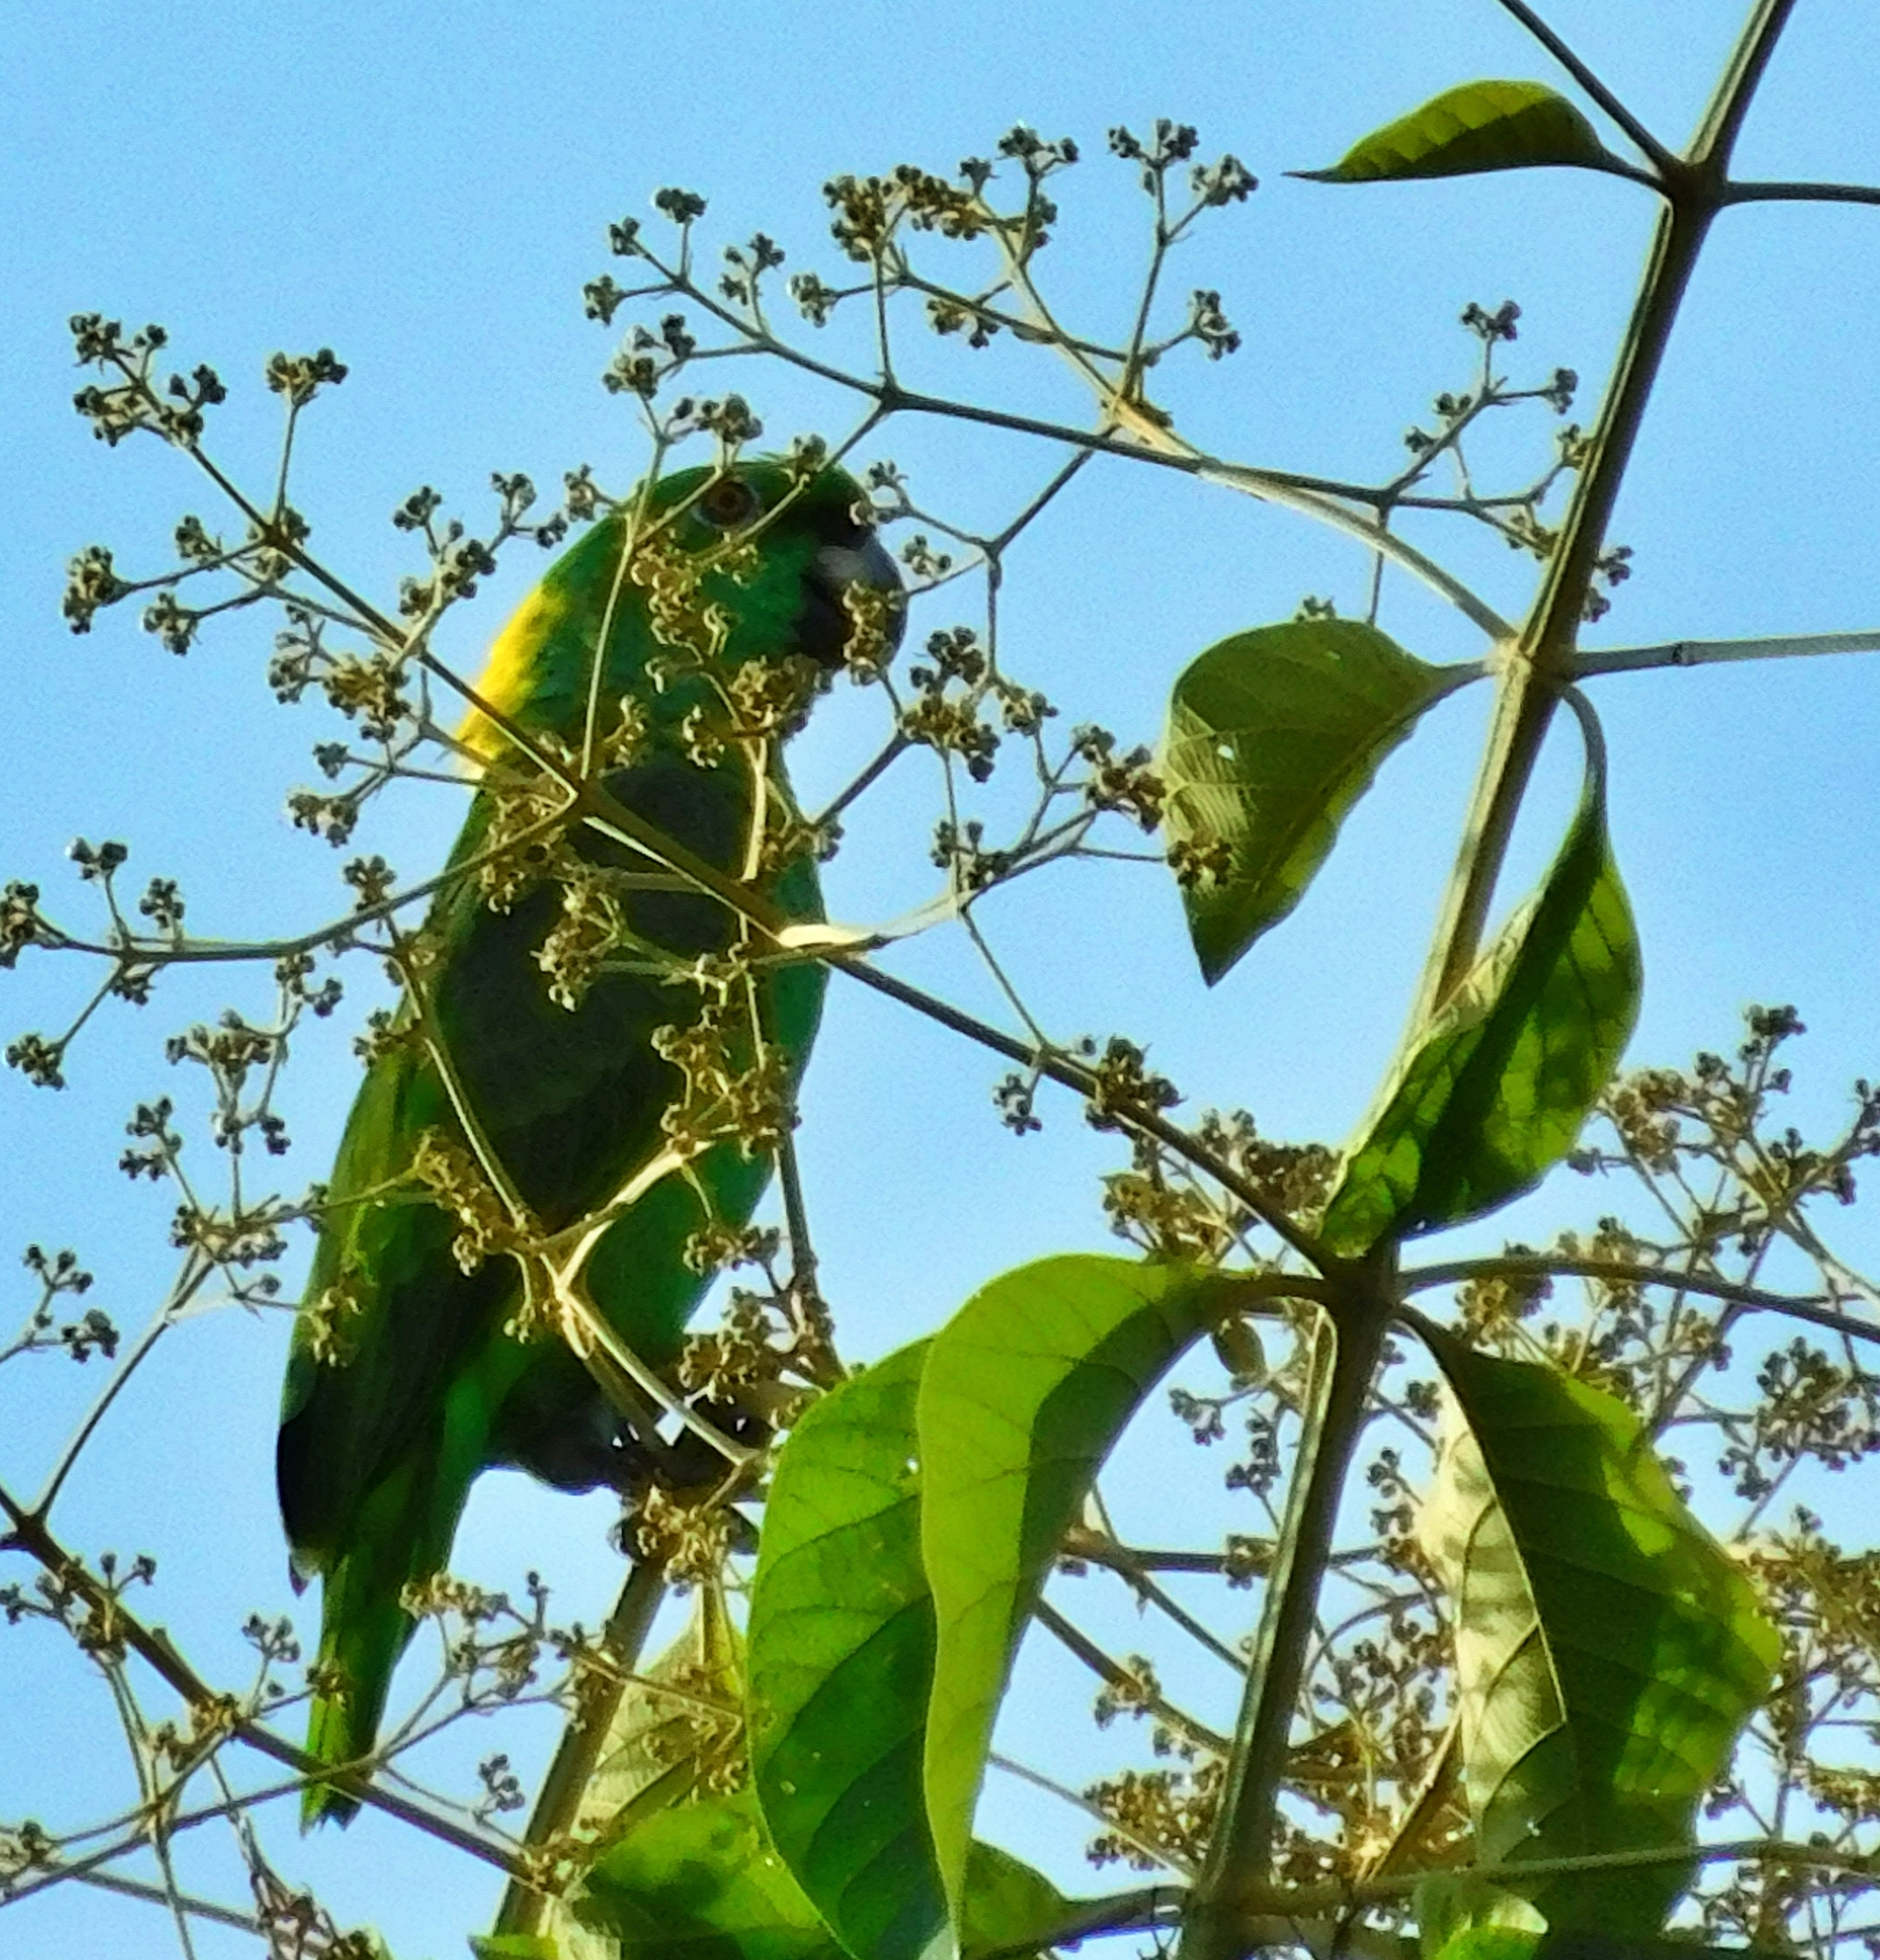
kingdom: Animalia
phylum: Chordata
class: Aves
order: Psittaciformes
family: Psittacidae
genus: Amazona
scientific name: Amazona auropalliata
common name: Yellow-naped amazon
